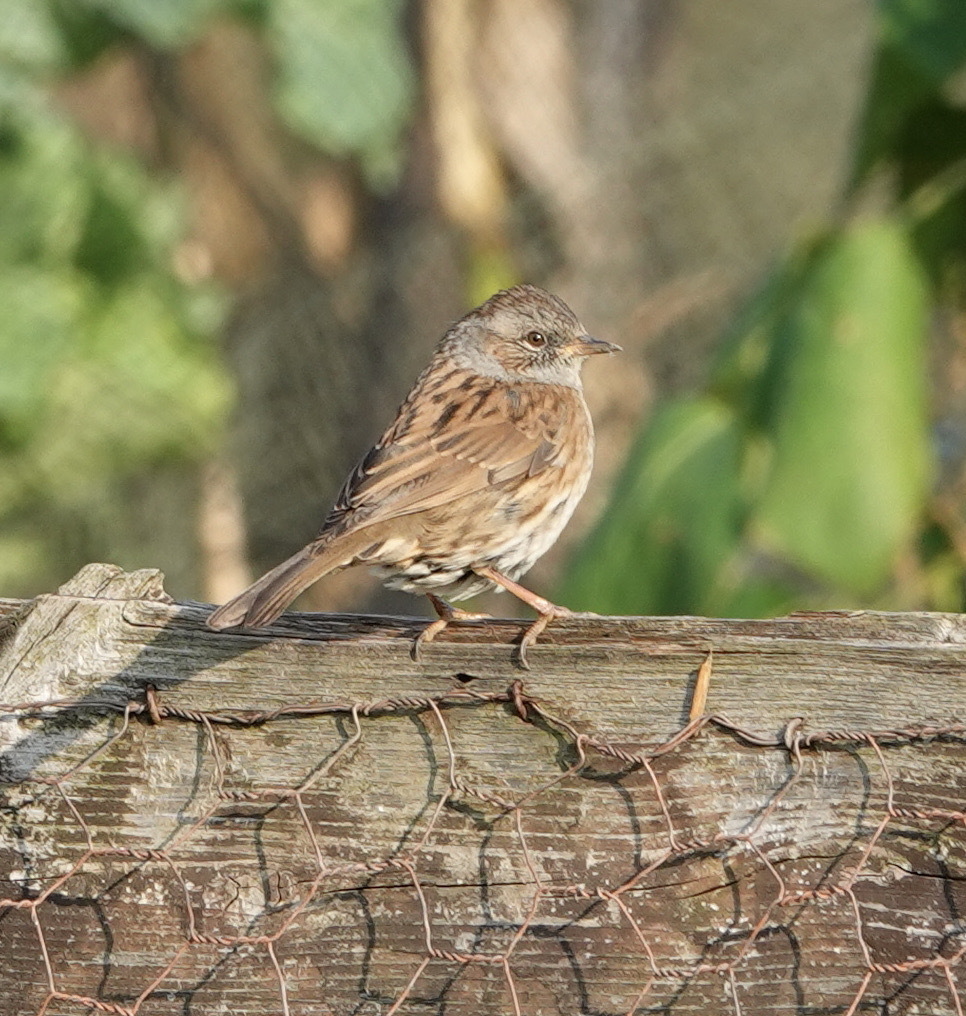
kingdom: Animalia
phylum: Chordata
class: Aves
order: Passeriformes
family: Prunellidae
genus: Prunella
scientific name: Prunella modularis
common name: Dunnock
